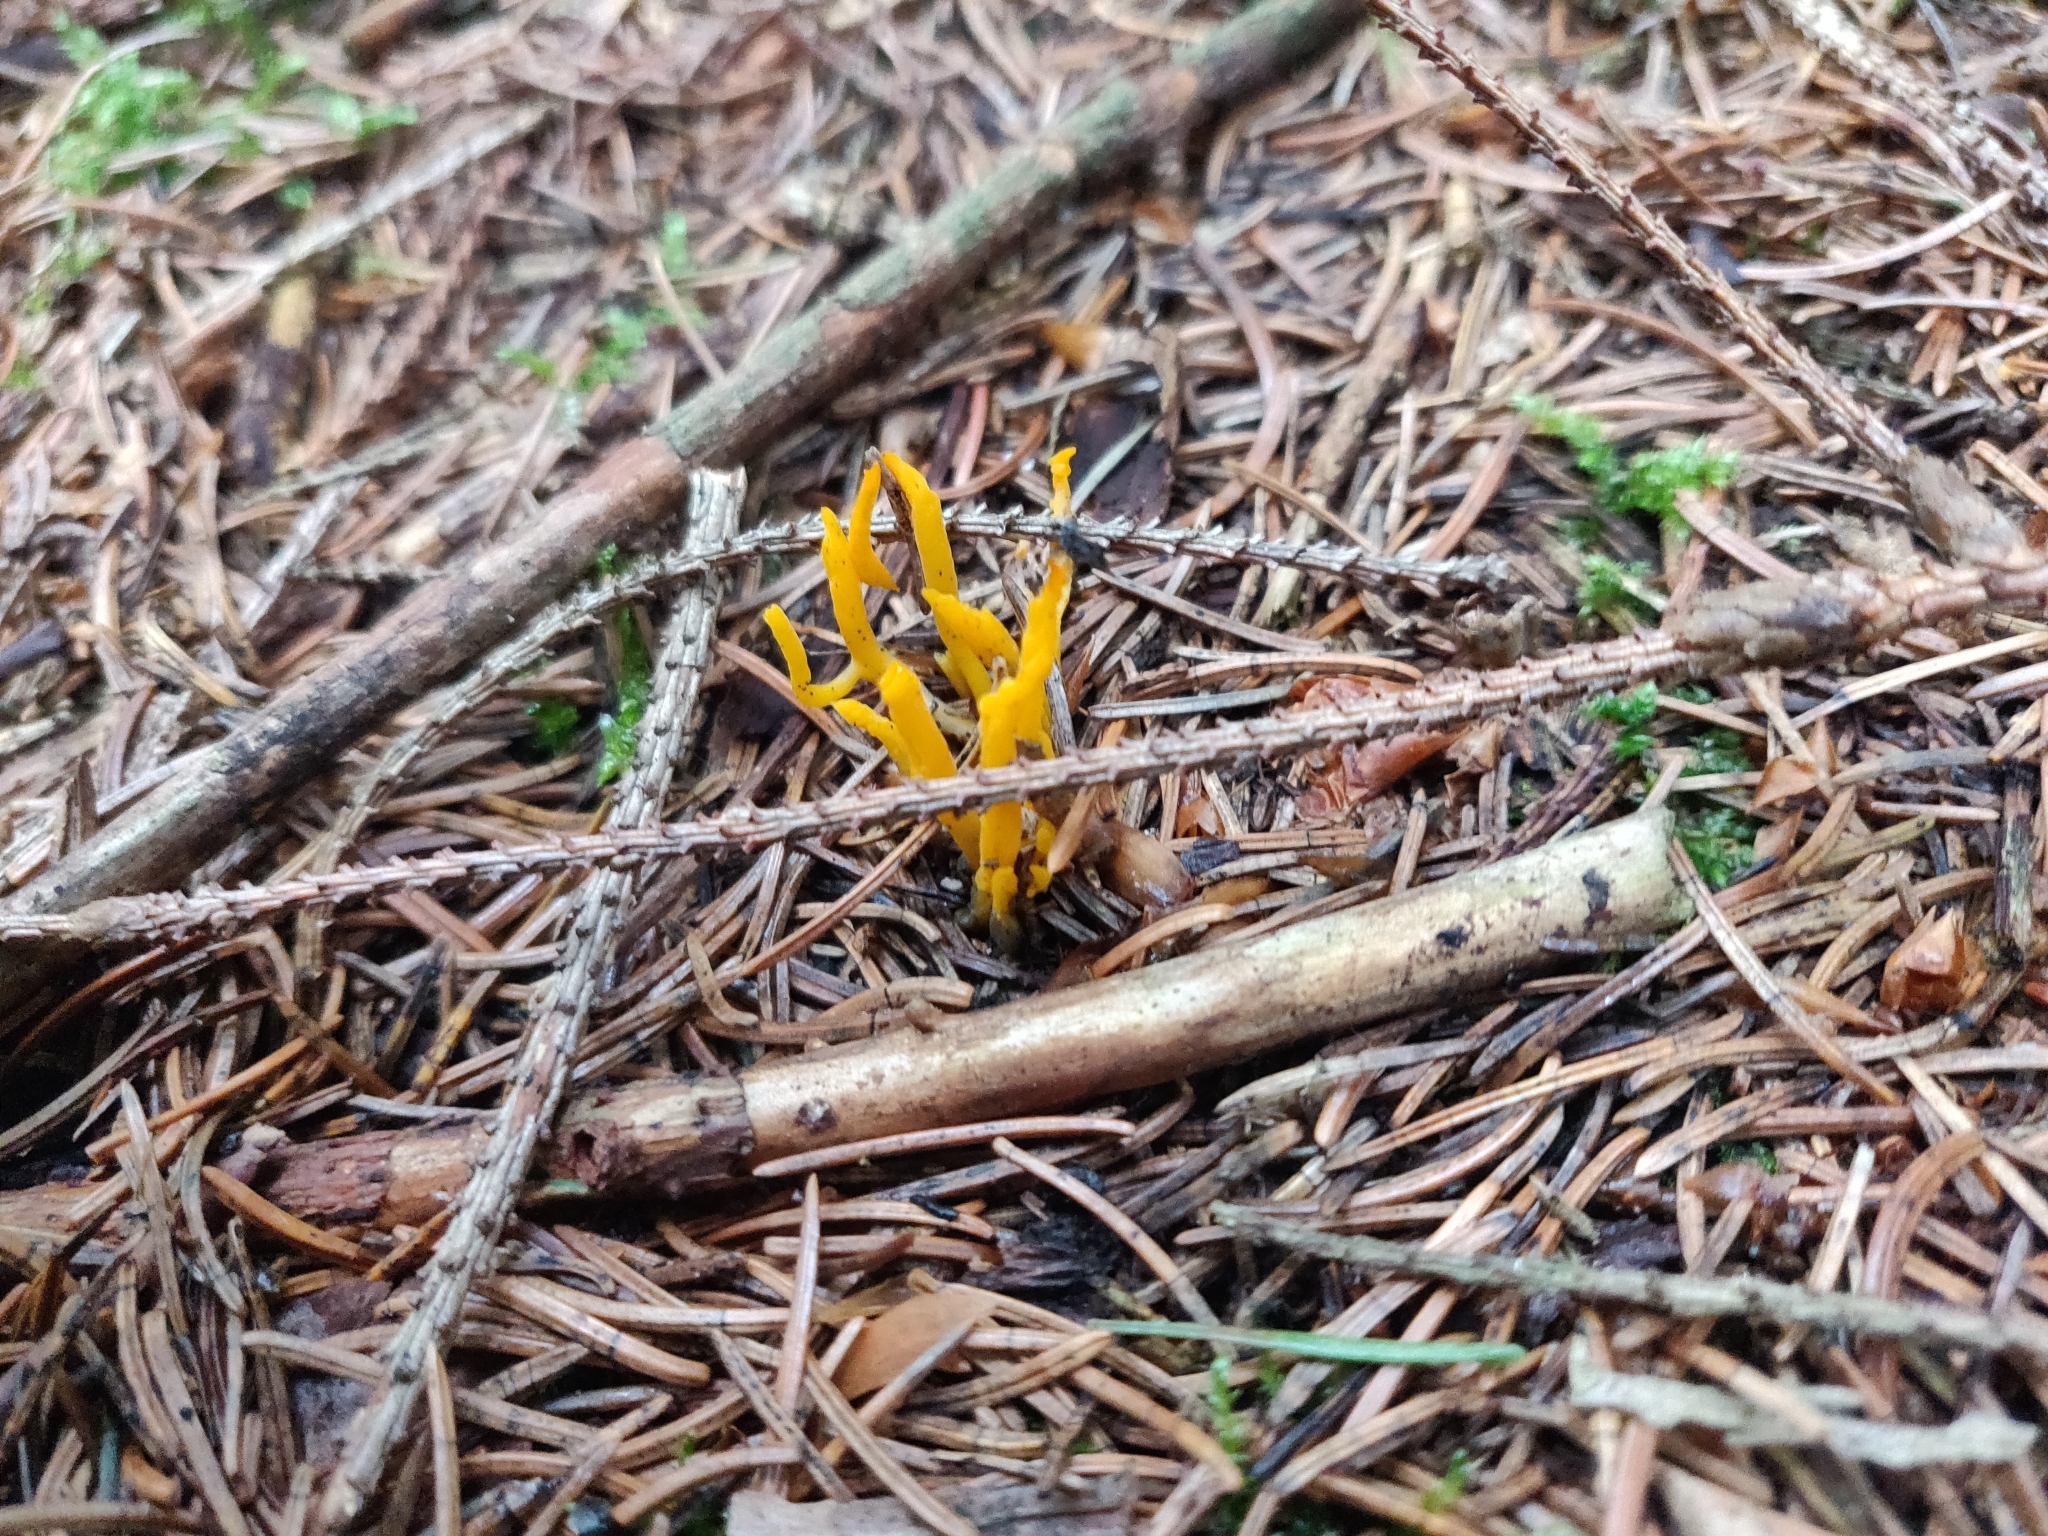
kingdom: Fungi
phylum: Basidiomycota
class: Dacrymycetes
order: Dacrymycetales
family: Dacrymycetaceae
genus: Calocera
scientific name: Calocera viscosa
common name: Yellow stagshorn
